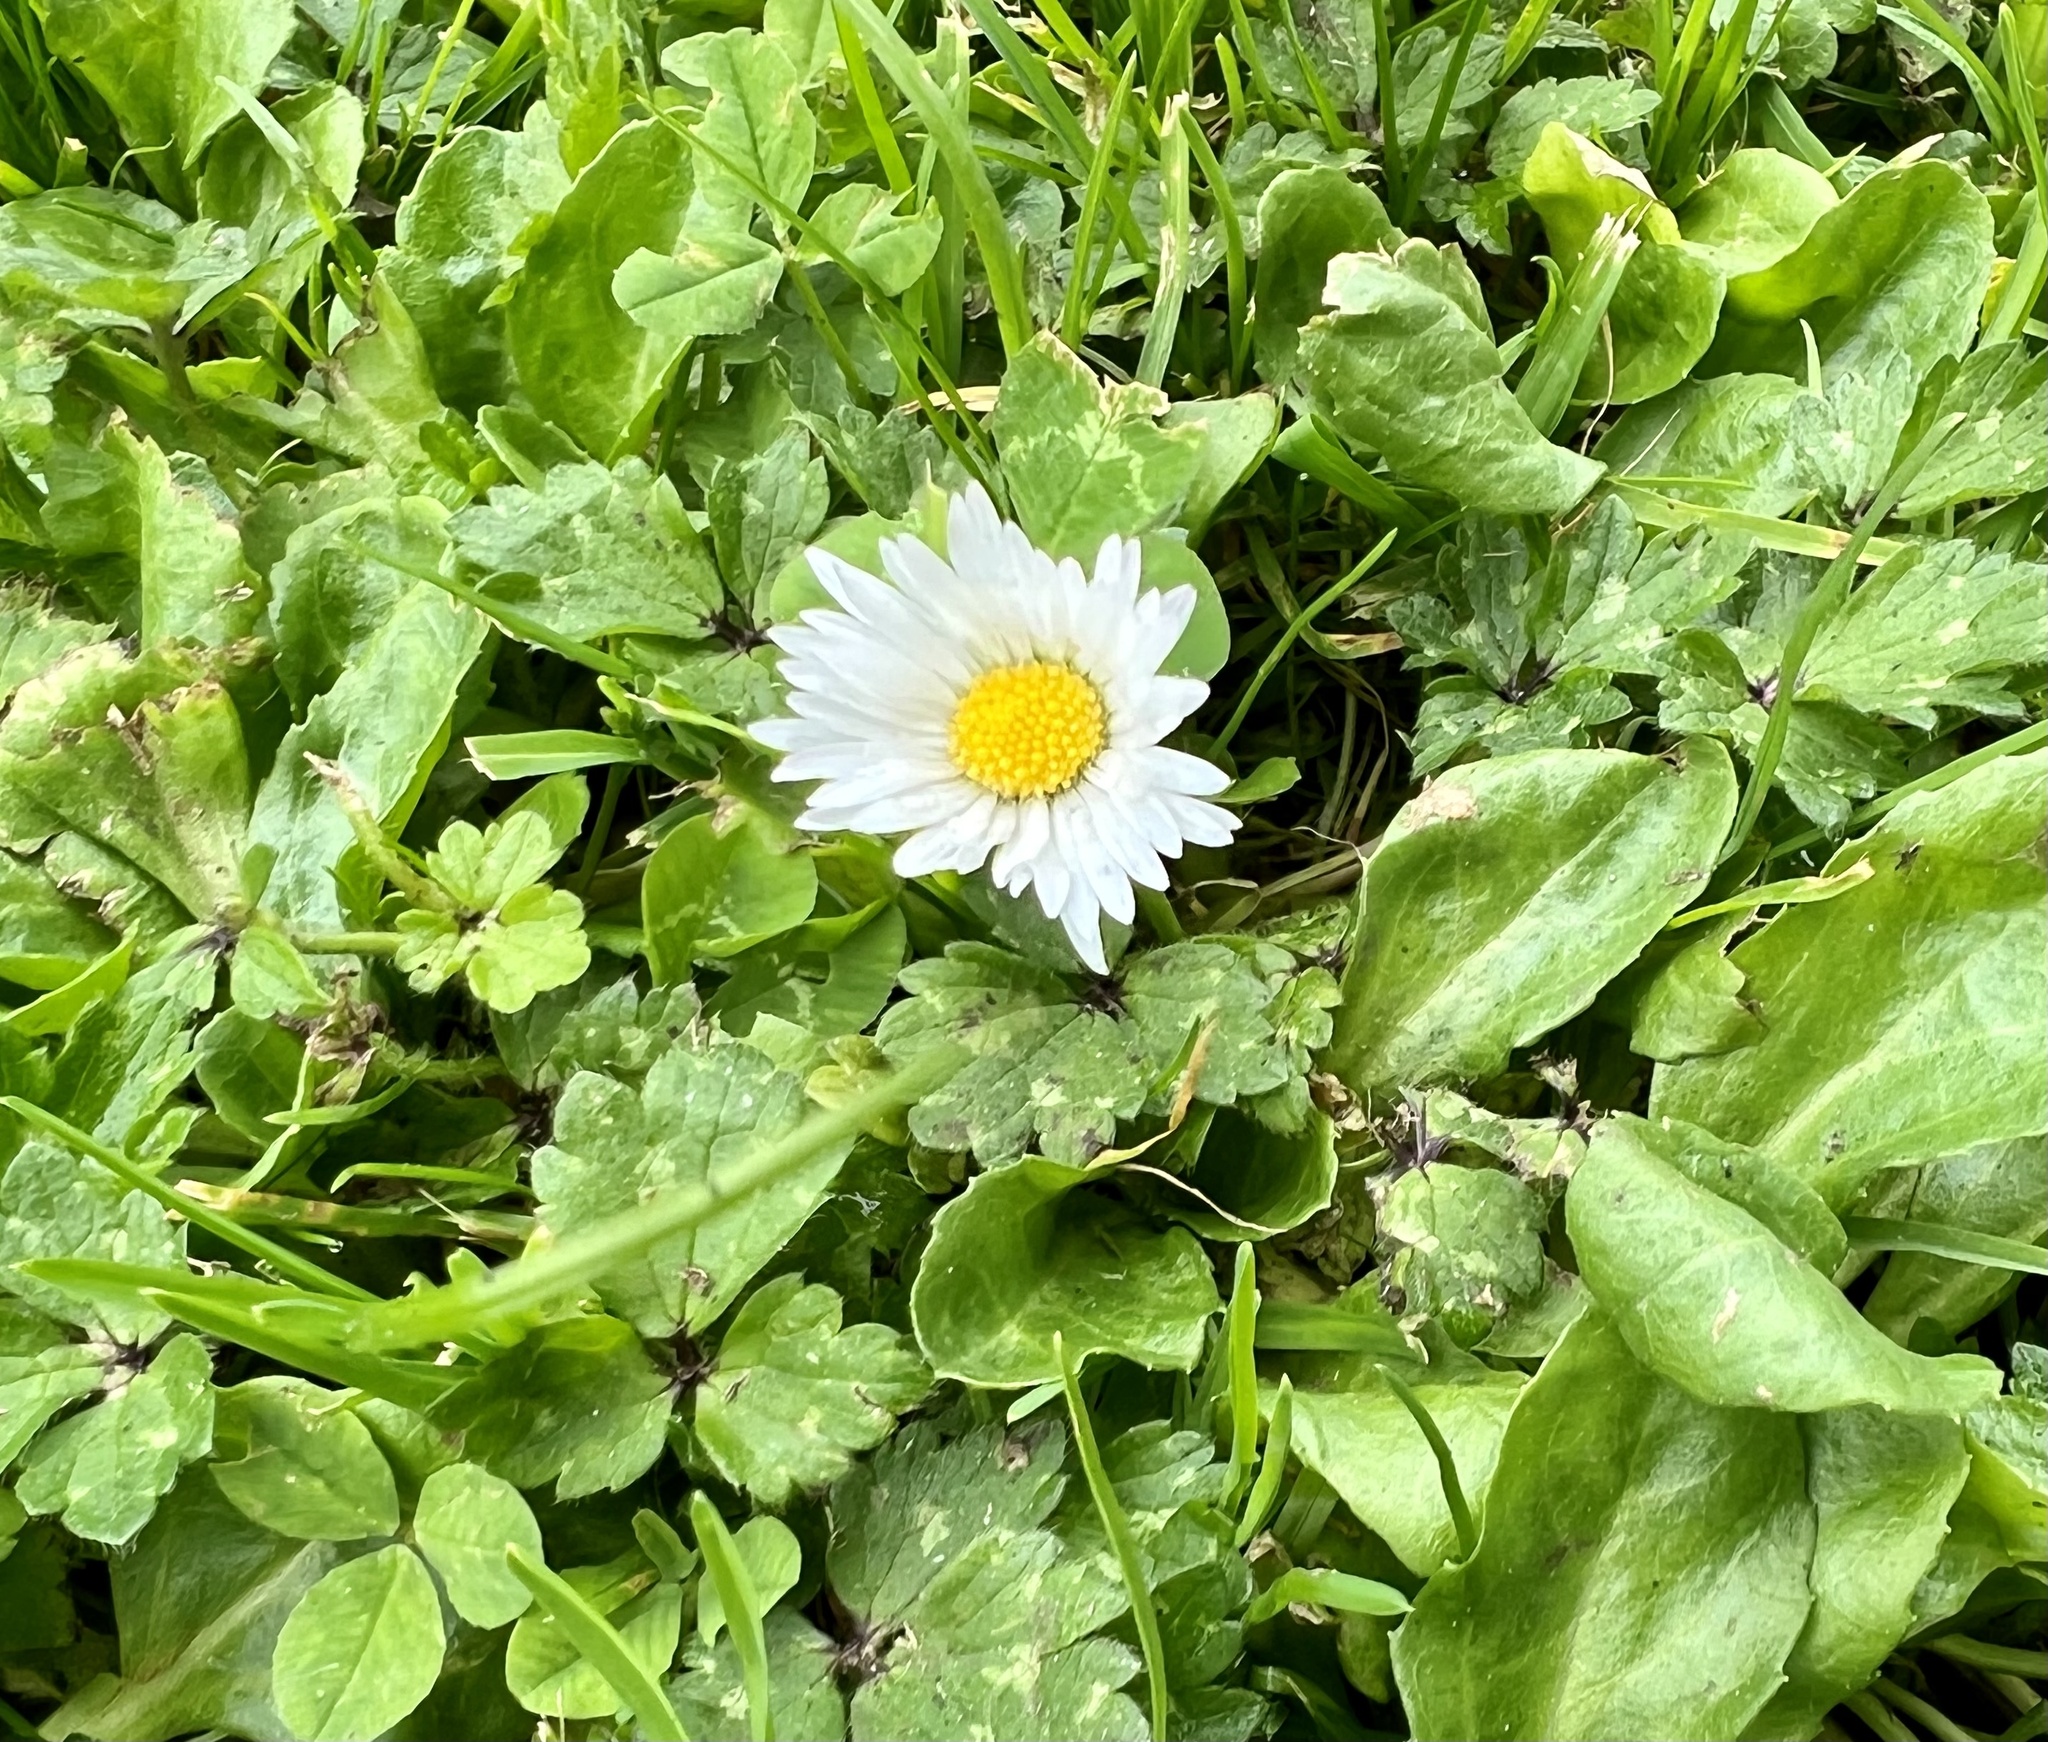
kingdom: Plantae
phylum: Tracheophyta
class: Magnoliopsida
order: Asterales
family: Asteraceae
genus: Bellis
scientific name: Bellis perennis
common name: Lawndaisy
